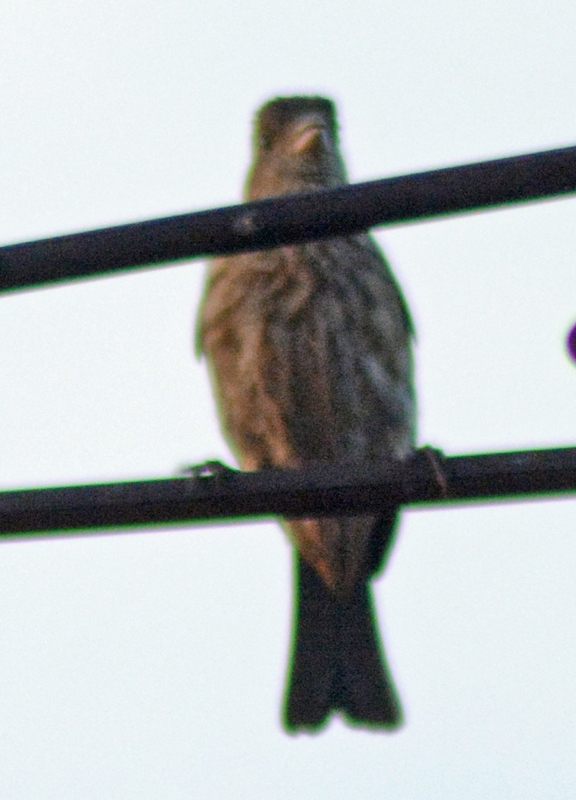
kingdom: Animalia
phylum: Chordata
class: Aves
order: Passeriformes
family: Fringillidae
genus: Haemorhous
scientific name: Haemorhous mexicanus
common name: House finch
